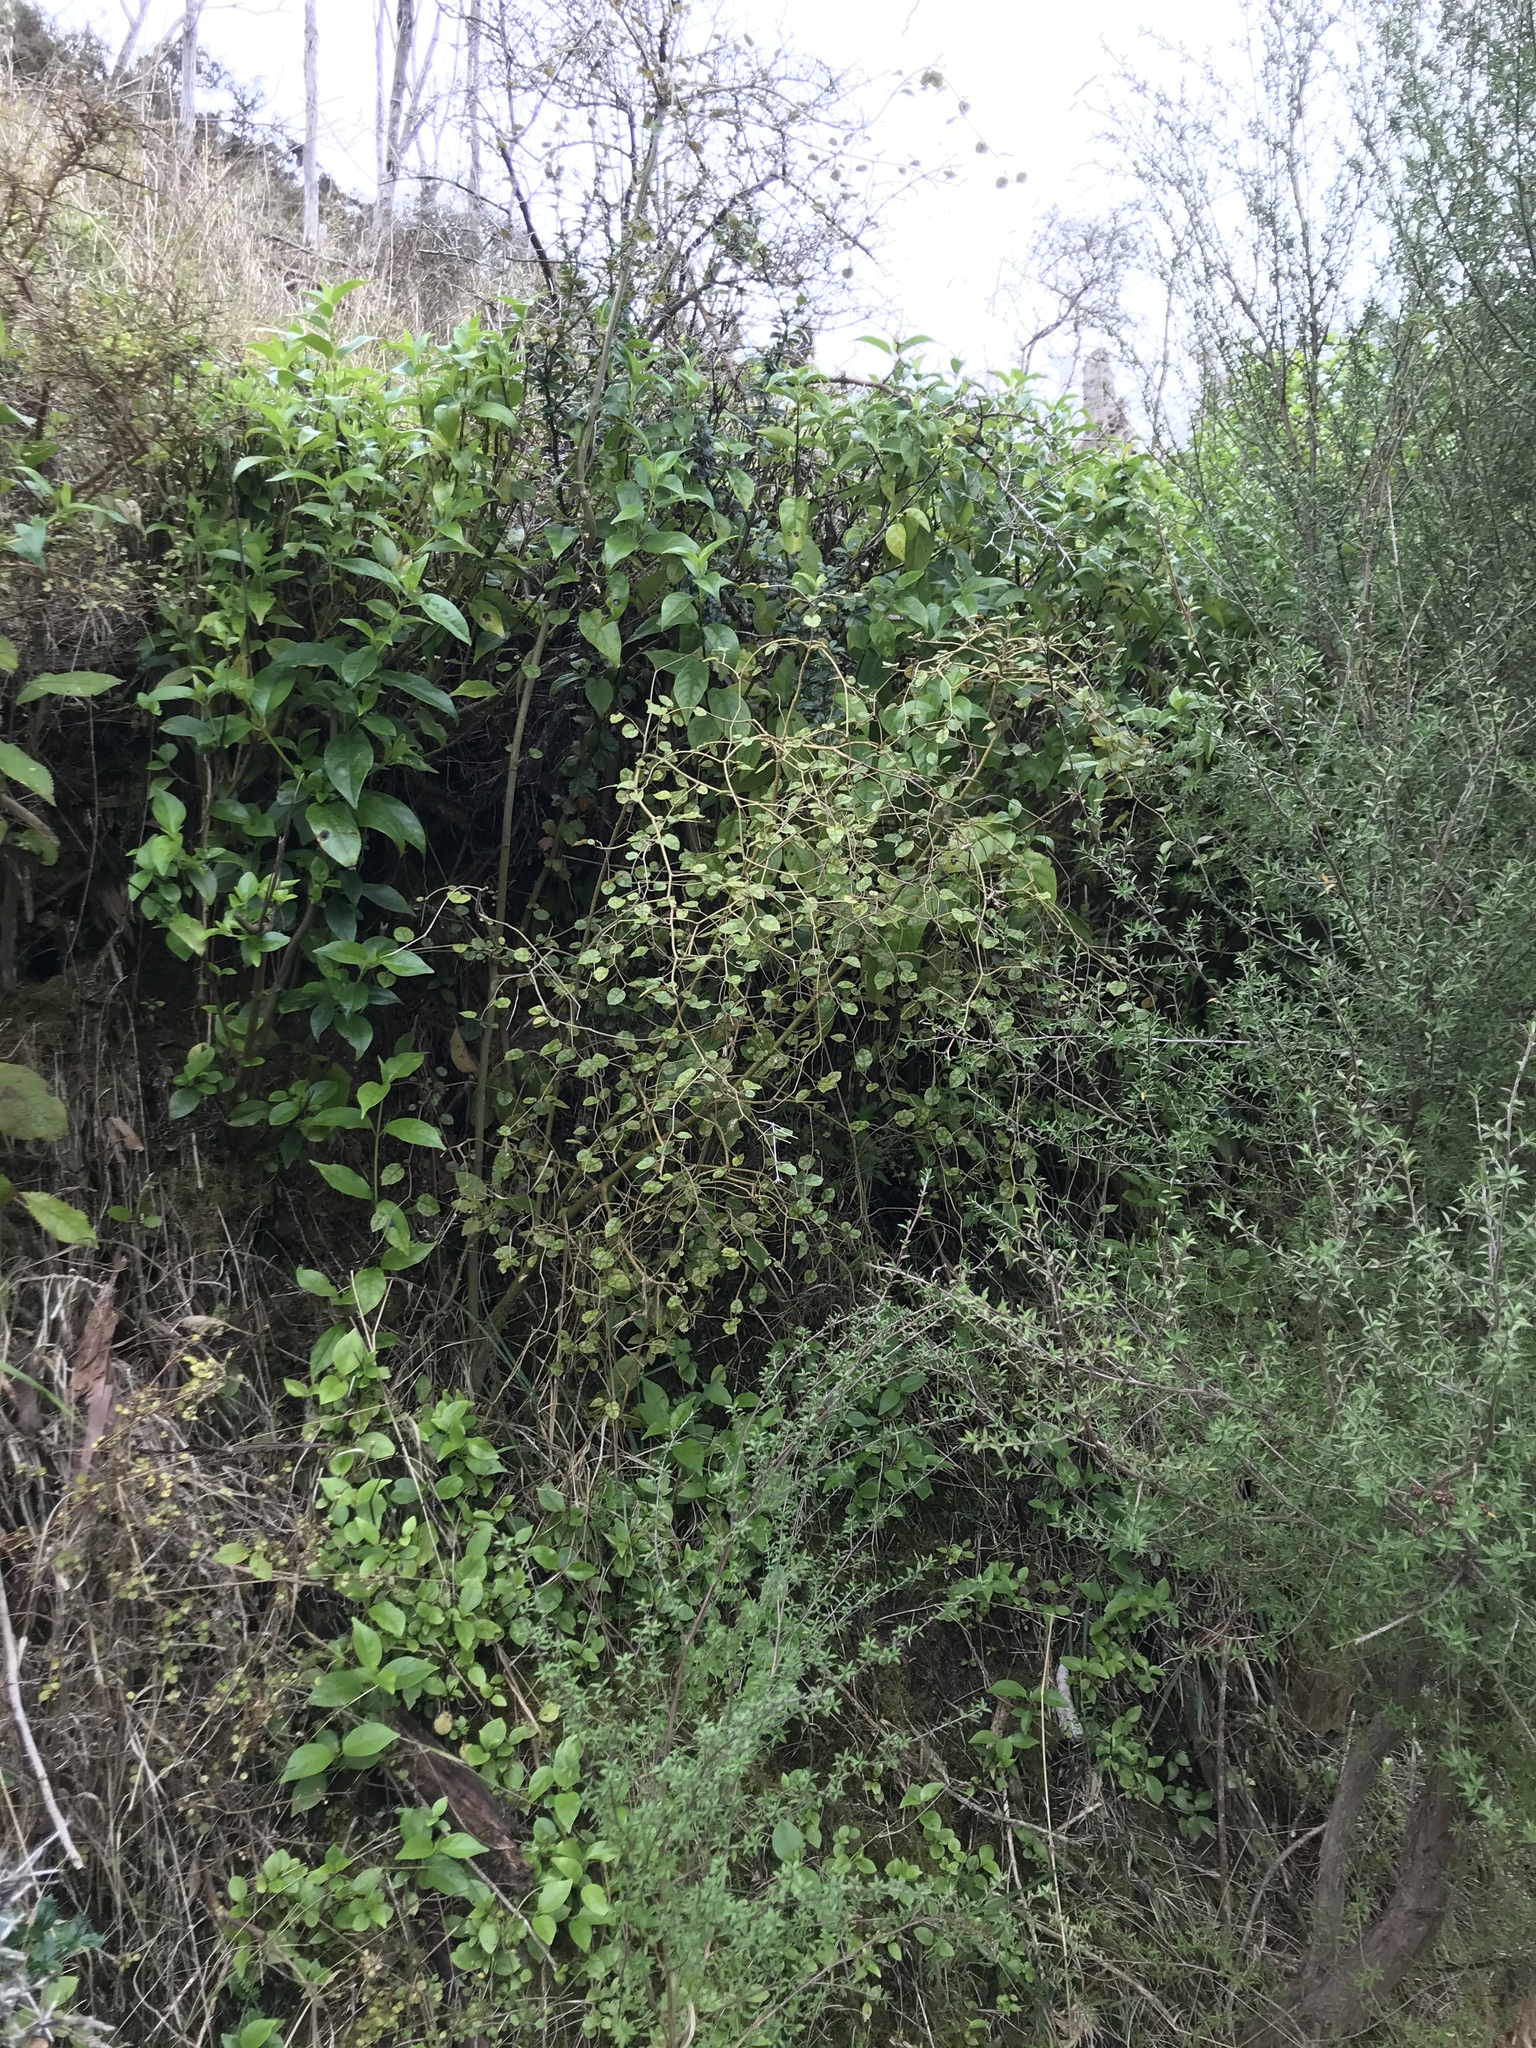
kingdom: Plantae
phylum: Tracheophyta
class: Magnoliopsida
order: Asterales
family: Rousseaceae
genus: Carpodetus
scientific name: Carpodetus serratus
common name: White mapau
